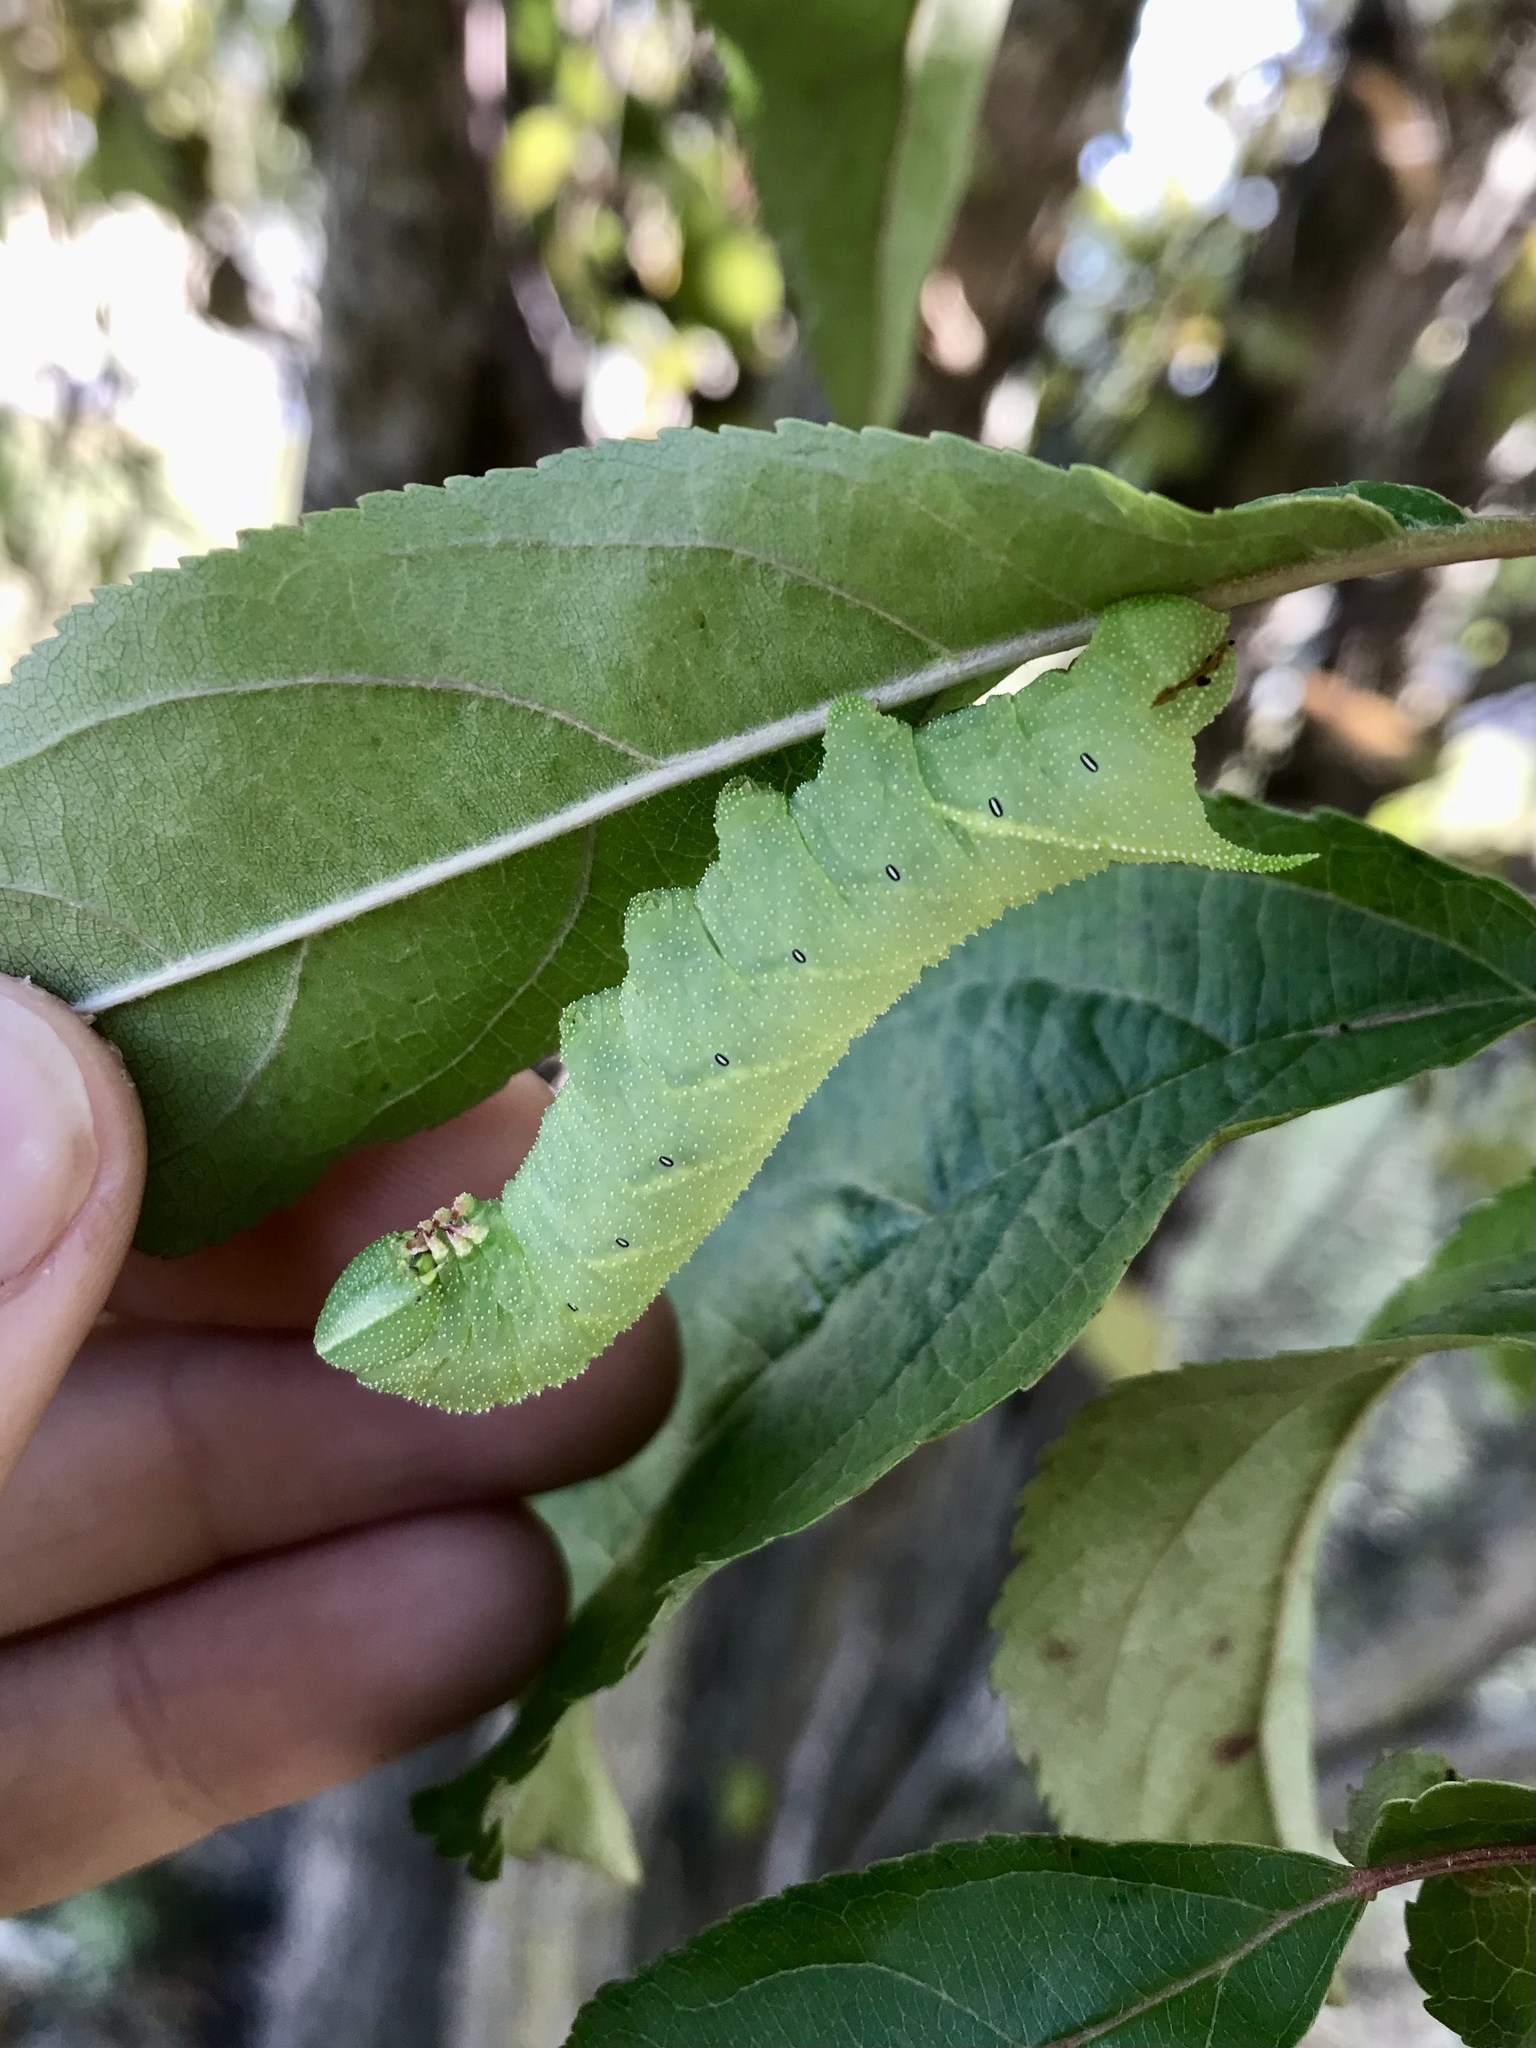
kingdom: Animalia
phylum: Arthropoda
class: Insecta
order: Lepidoptera
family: Sphingidae
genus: Paonias
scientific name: Paonias excaecata
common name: Blind-eyed sphinx
